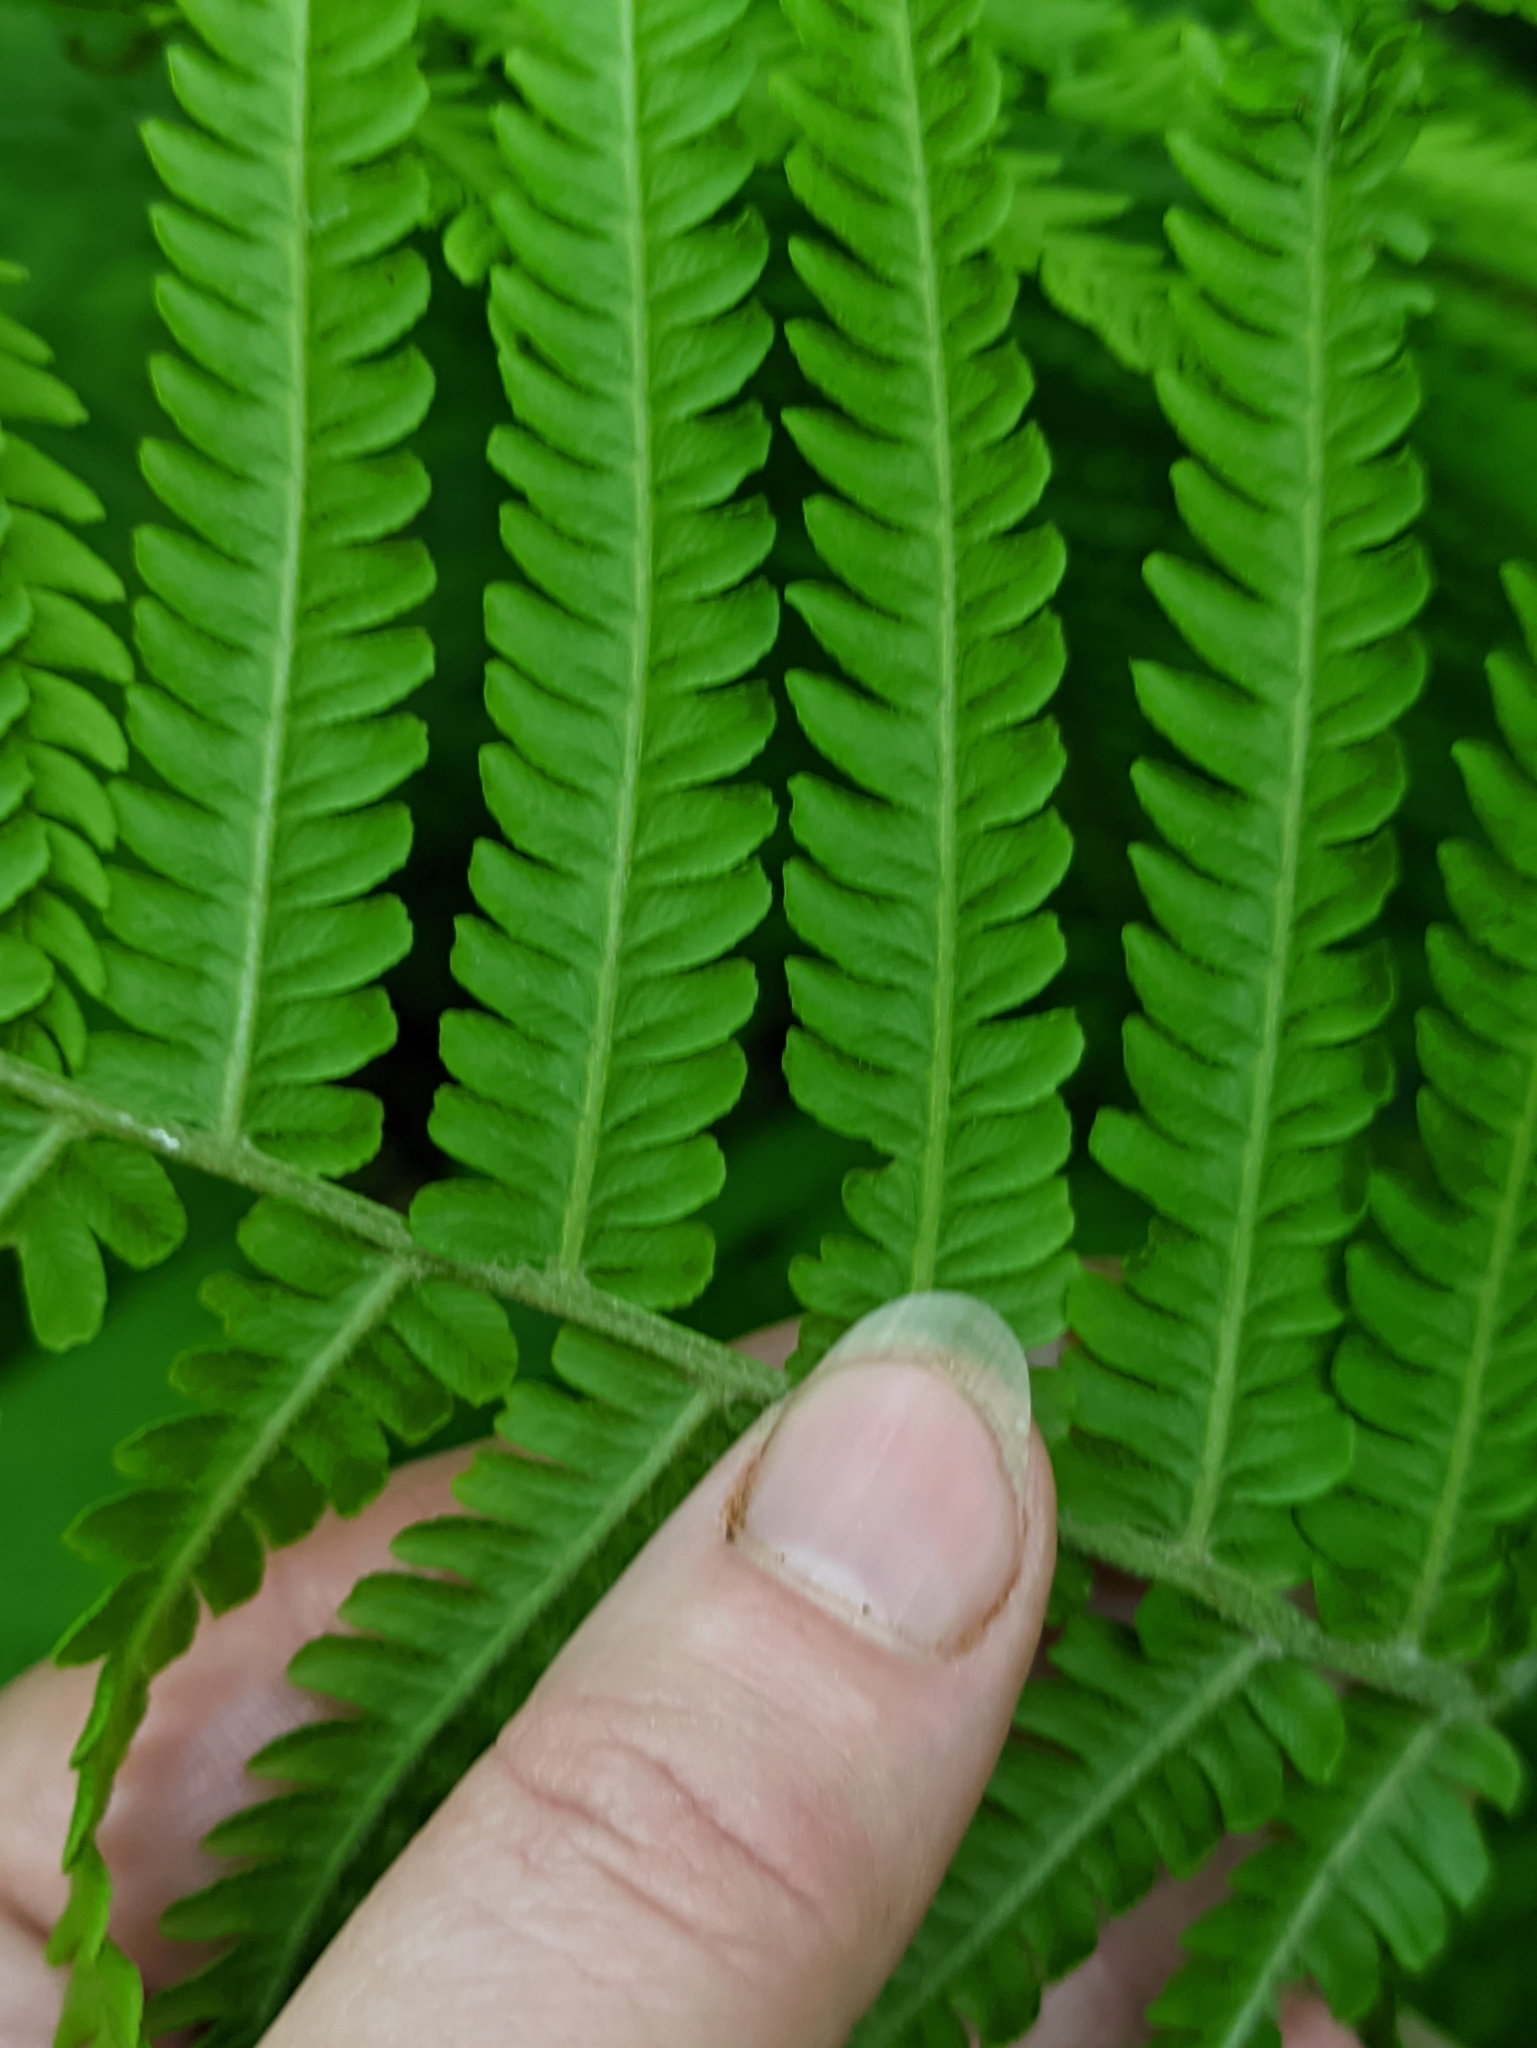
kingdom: Plantae
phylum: Tracheophyta
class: Polypodiopsida
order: Polypodiales
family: Onocleaceae
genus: Matteuccia
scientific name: Matteuccia struthiopteris
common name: Ostrich fern
